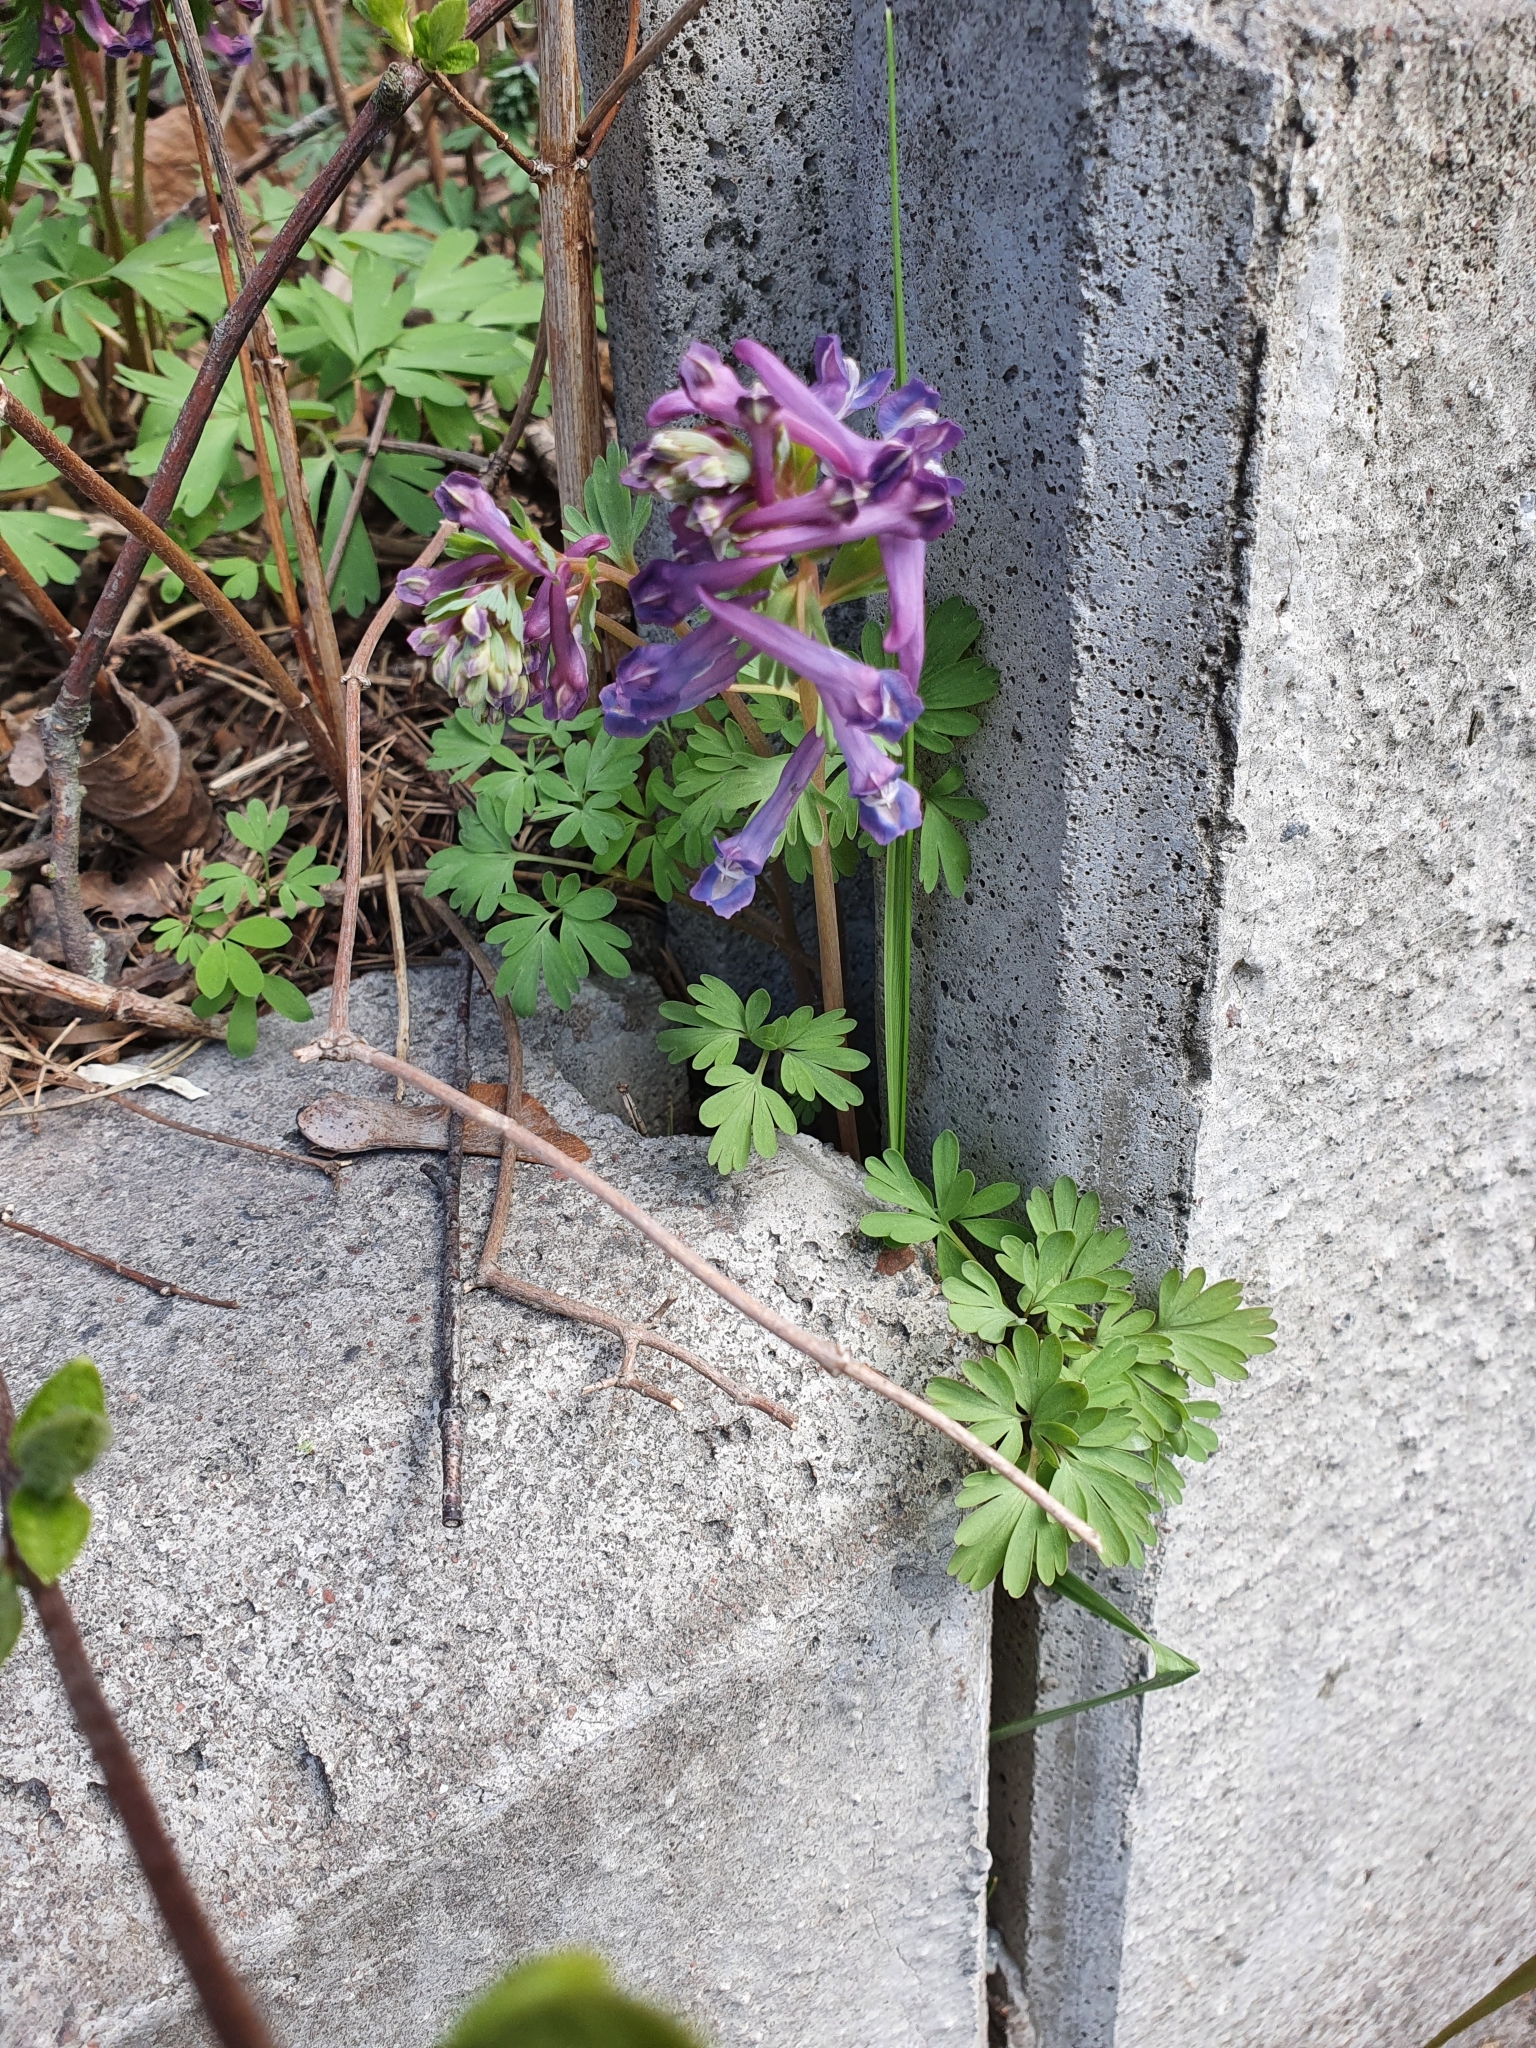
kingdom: Plantae
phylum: Tracheophyta
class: Magnoliopsida
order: Ranunculales
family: Papaveraceae
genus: Corydalis
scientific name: Corydalis solida
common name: Bird-in-a-bush
